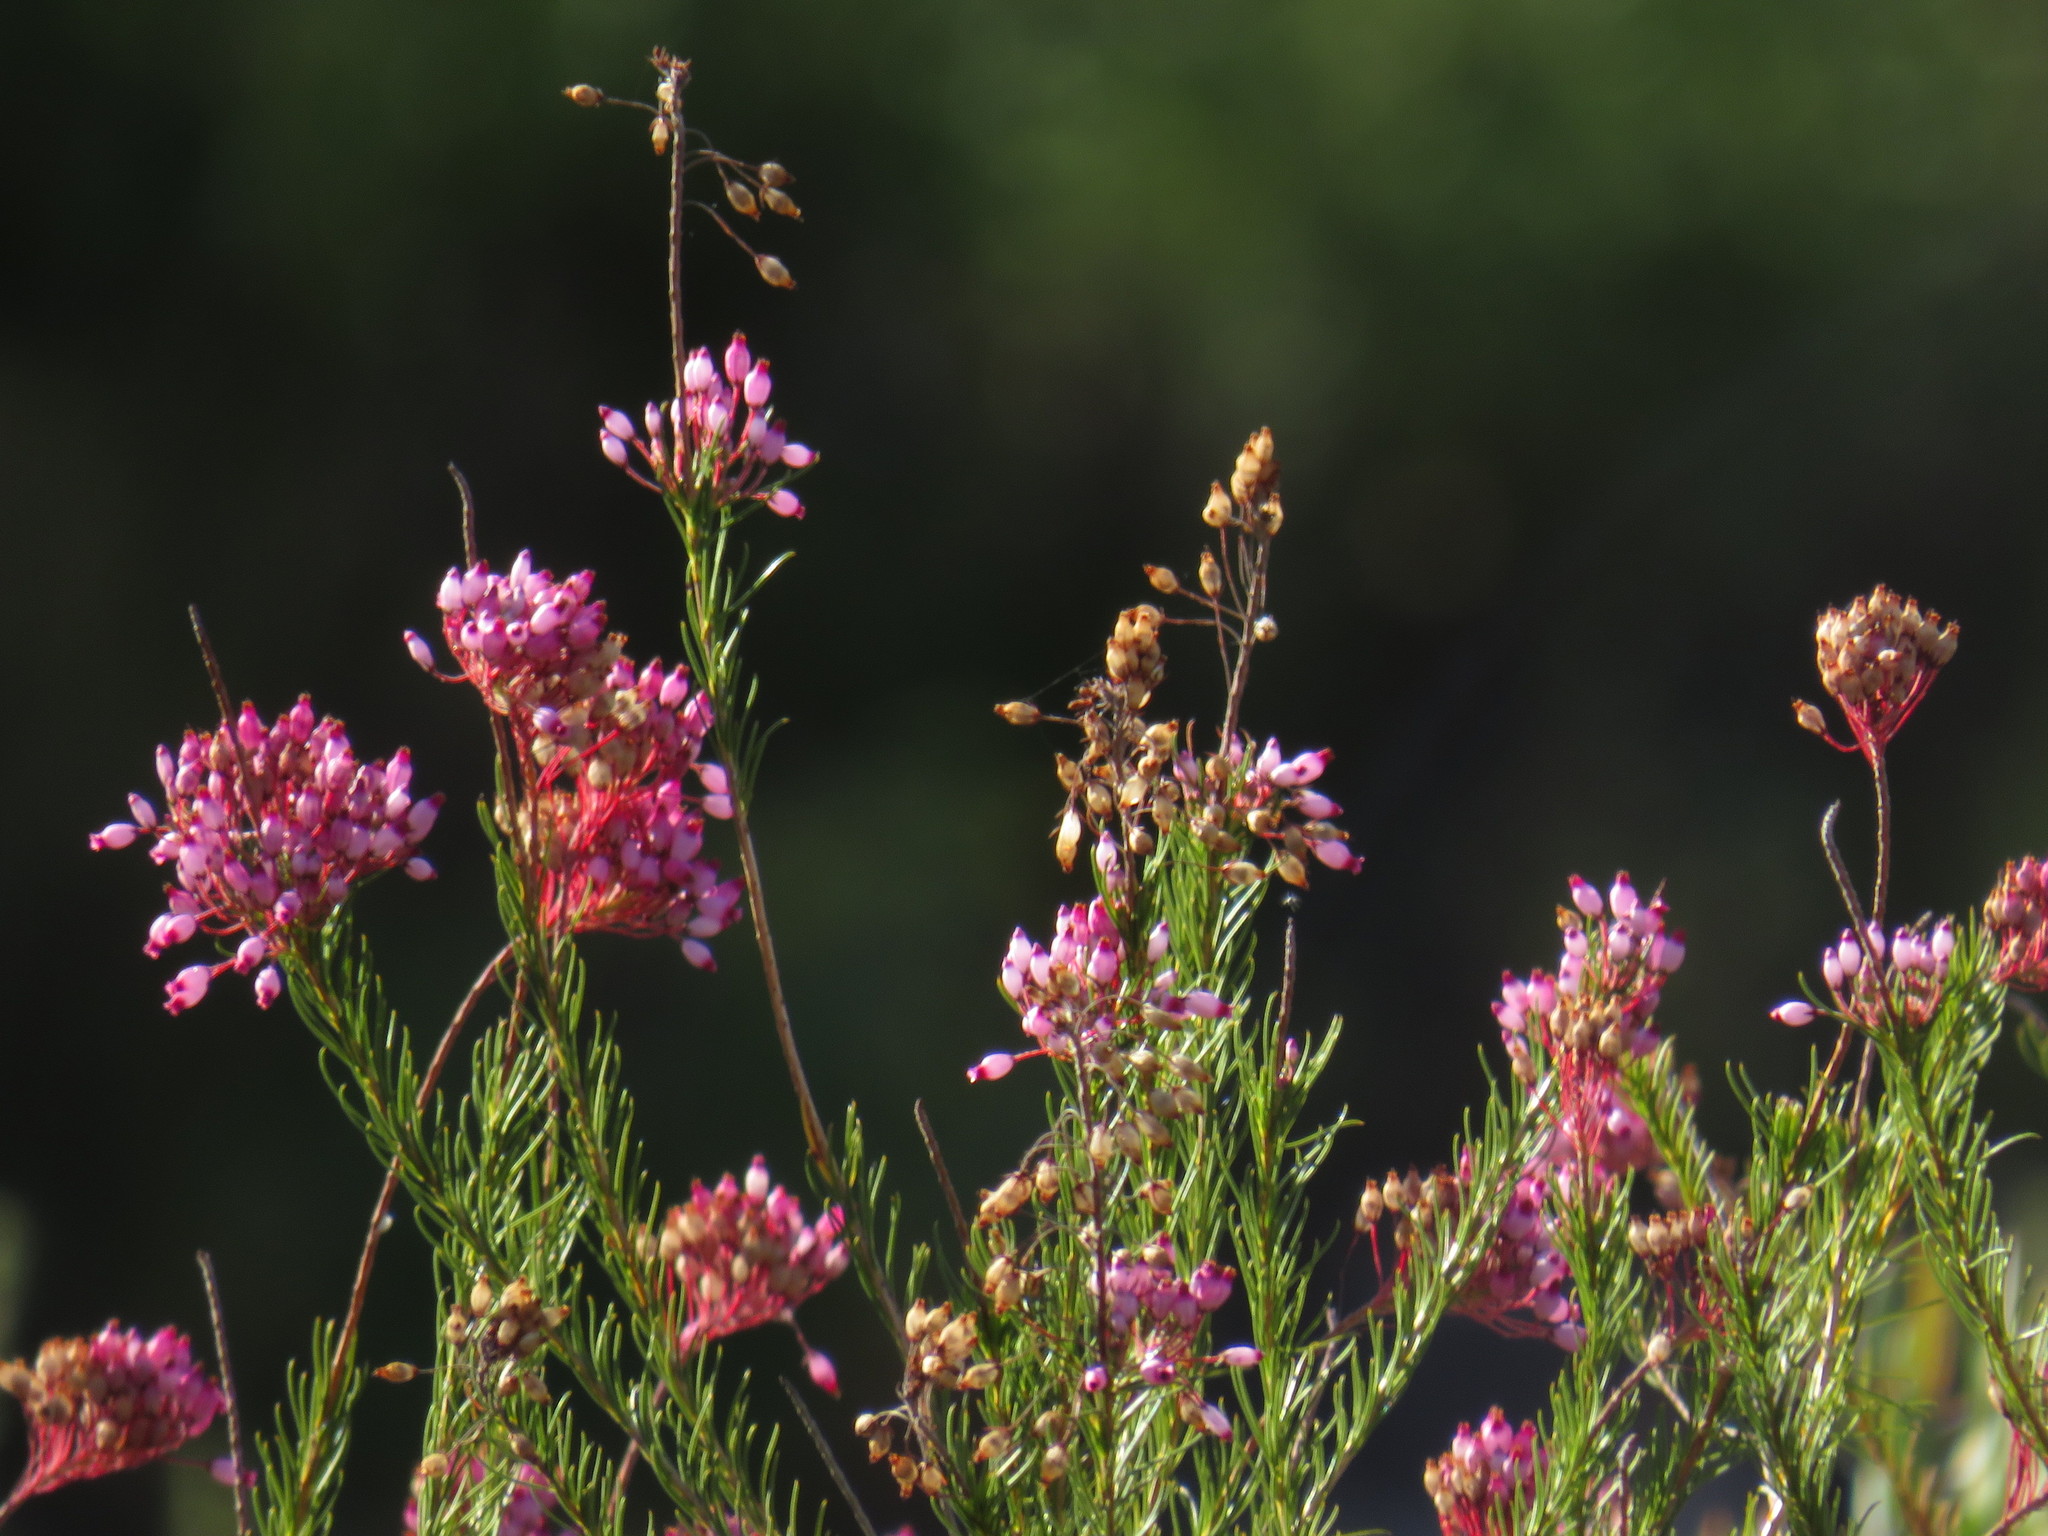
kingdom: Plantae
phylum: Tracheophyta
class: Magnoliopsida
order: Ericales
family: Ericaceae
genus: Erica
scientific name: Erica inflata
